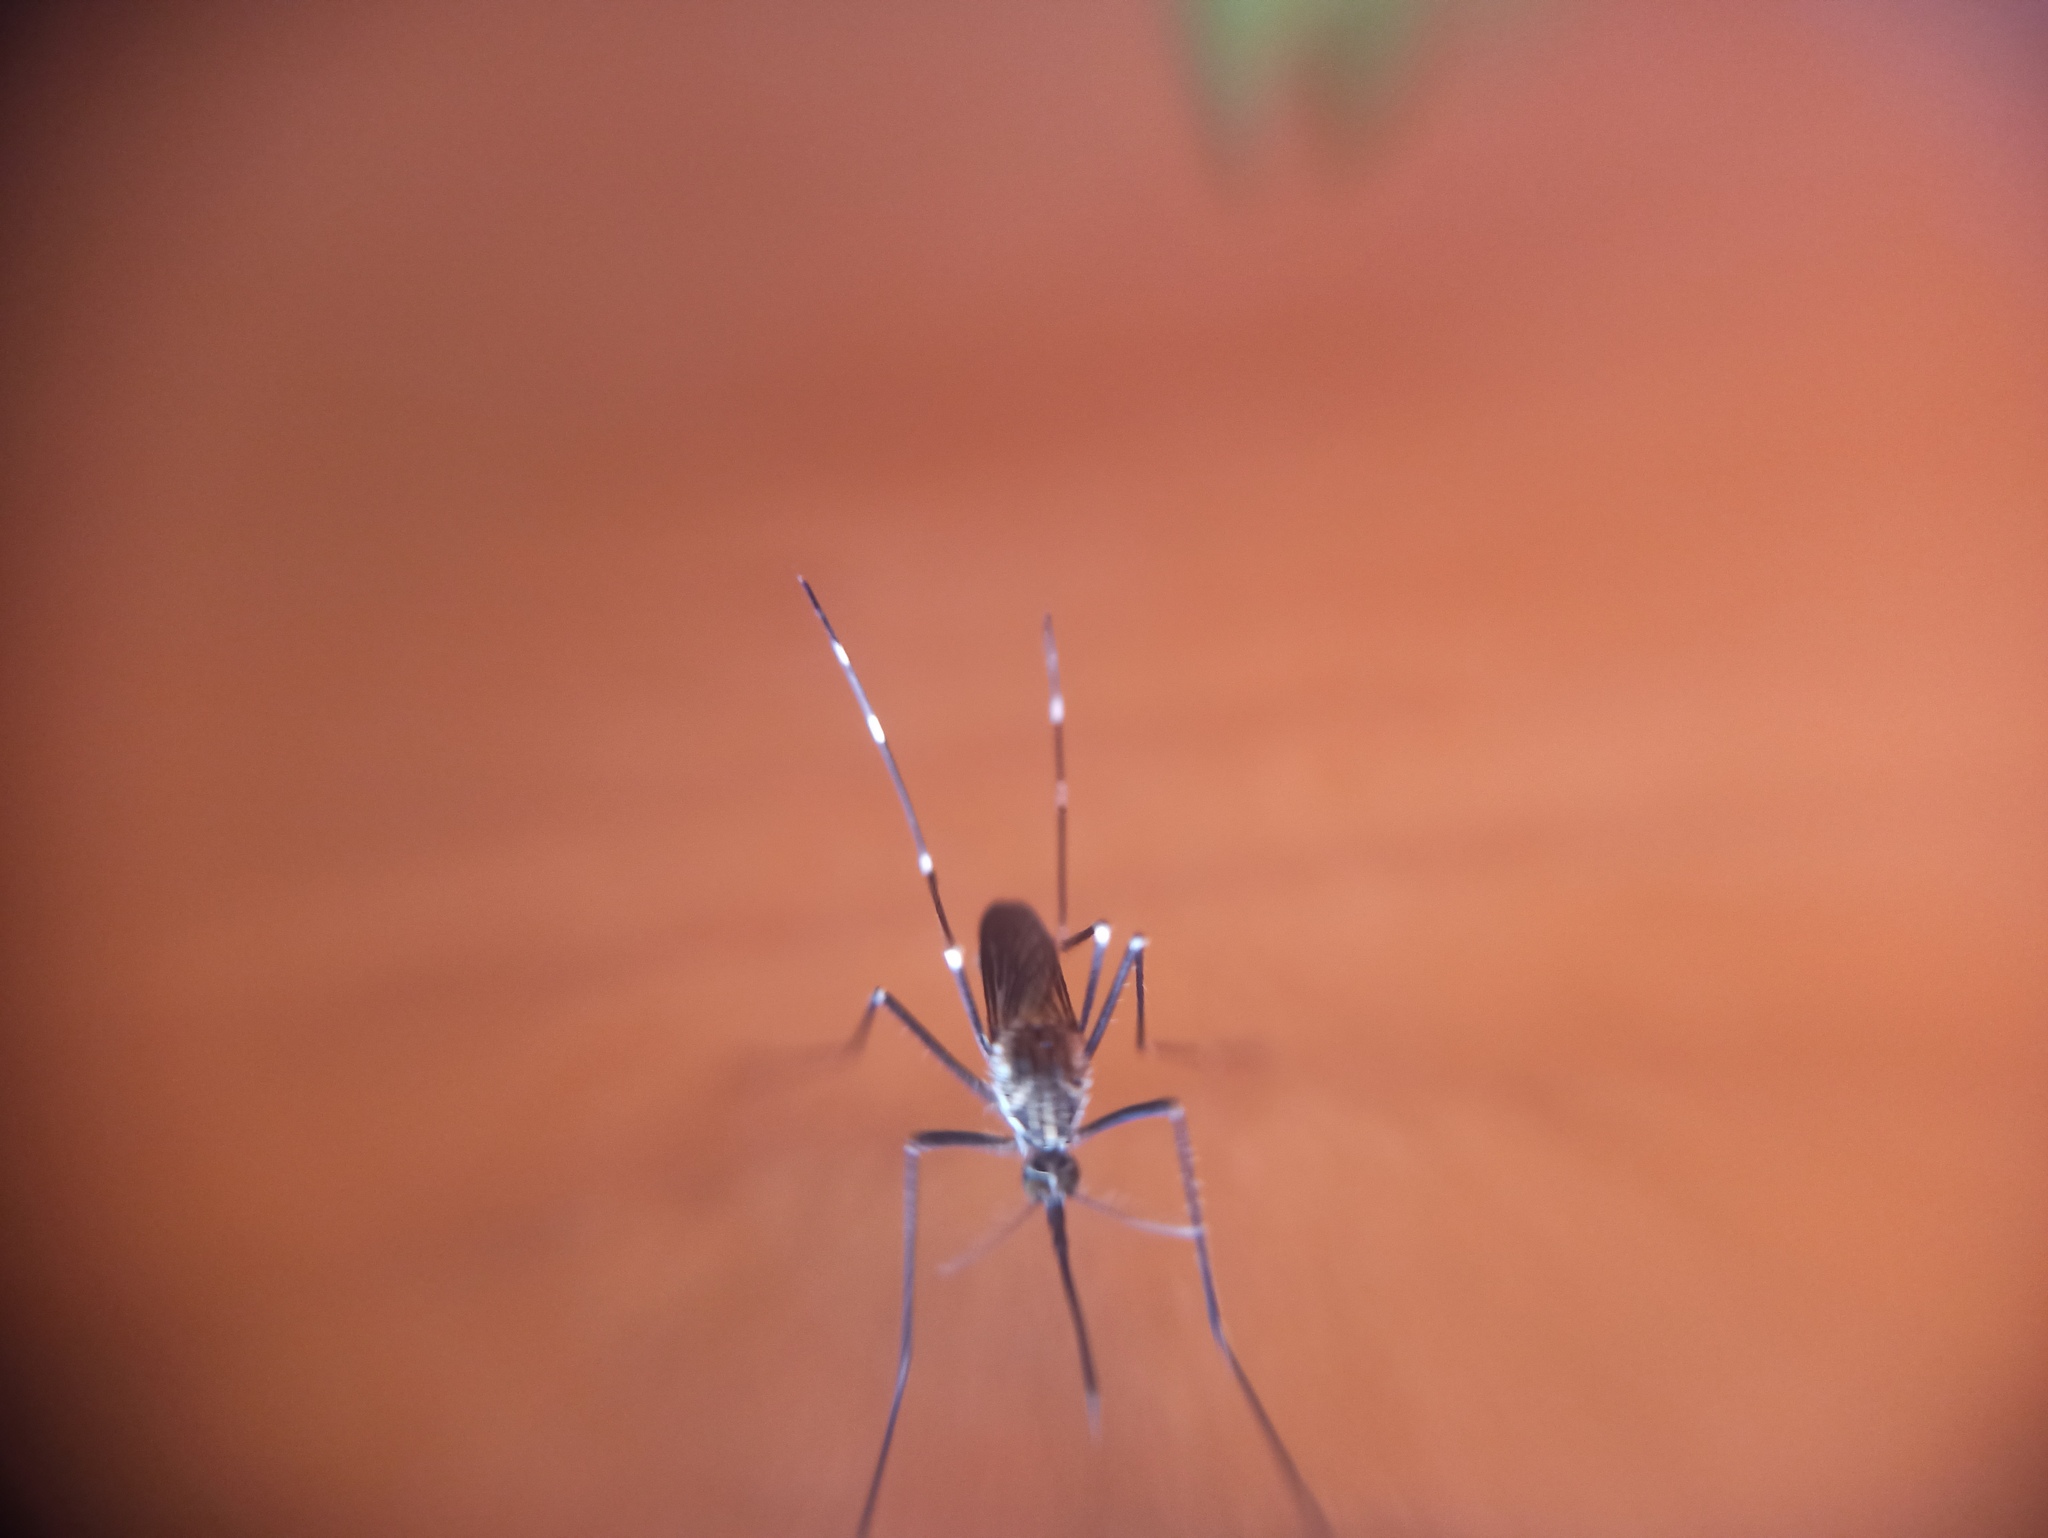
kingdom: Animalia
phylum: Arthropoda
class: Insecta
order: Diptera
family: Culicidae
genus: Aedes
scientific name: Aedes japonicus
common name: Asian bush mosquito
